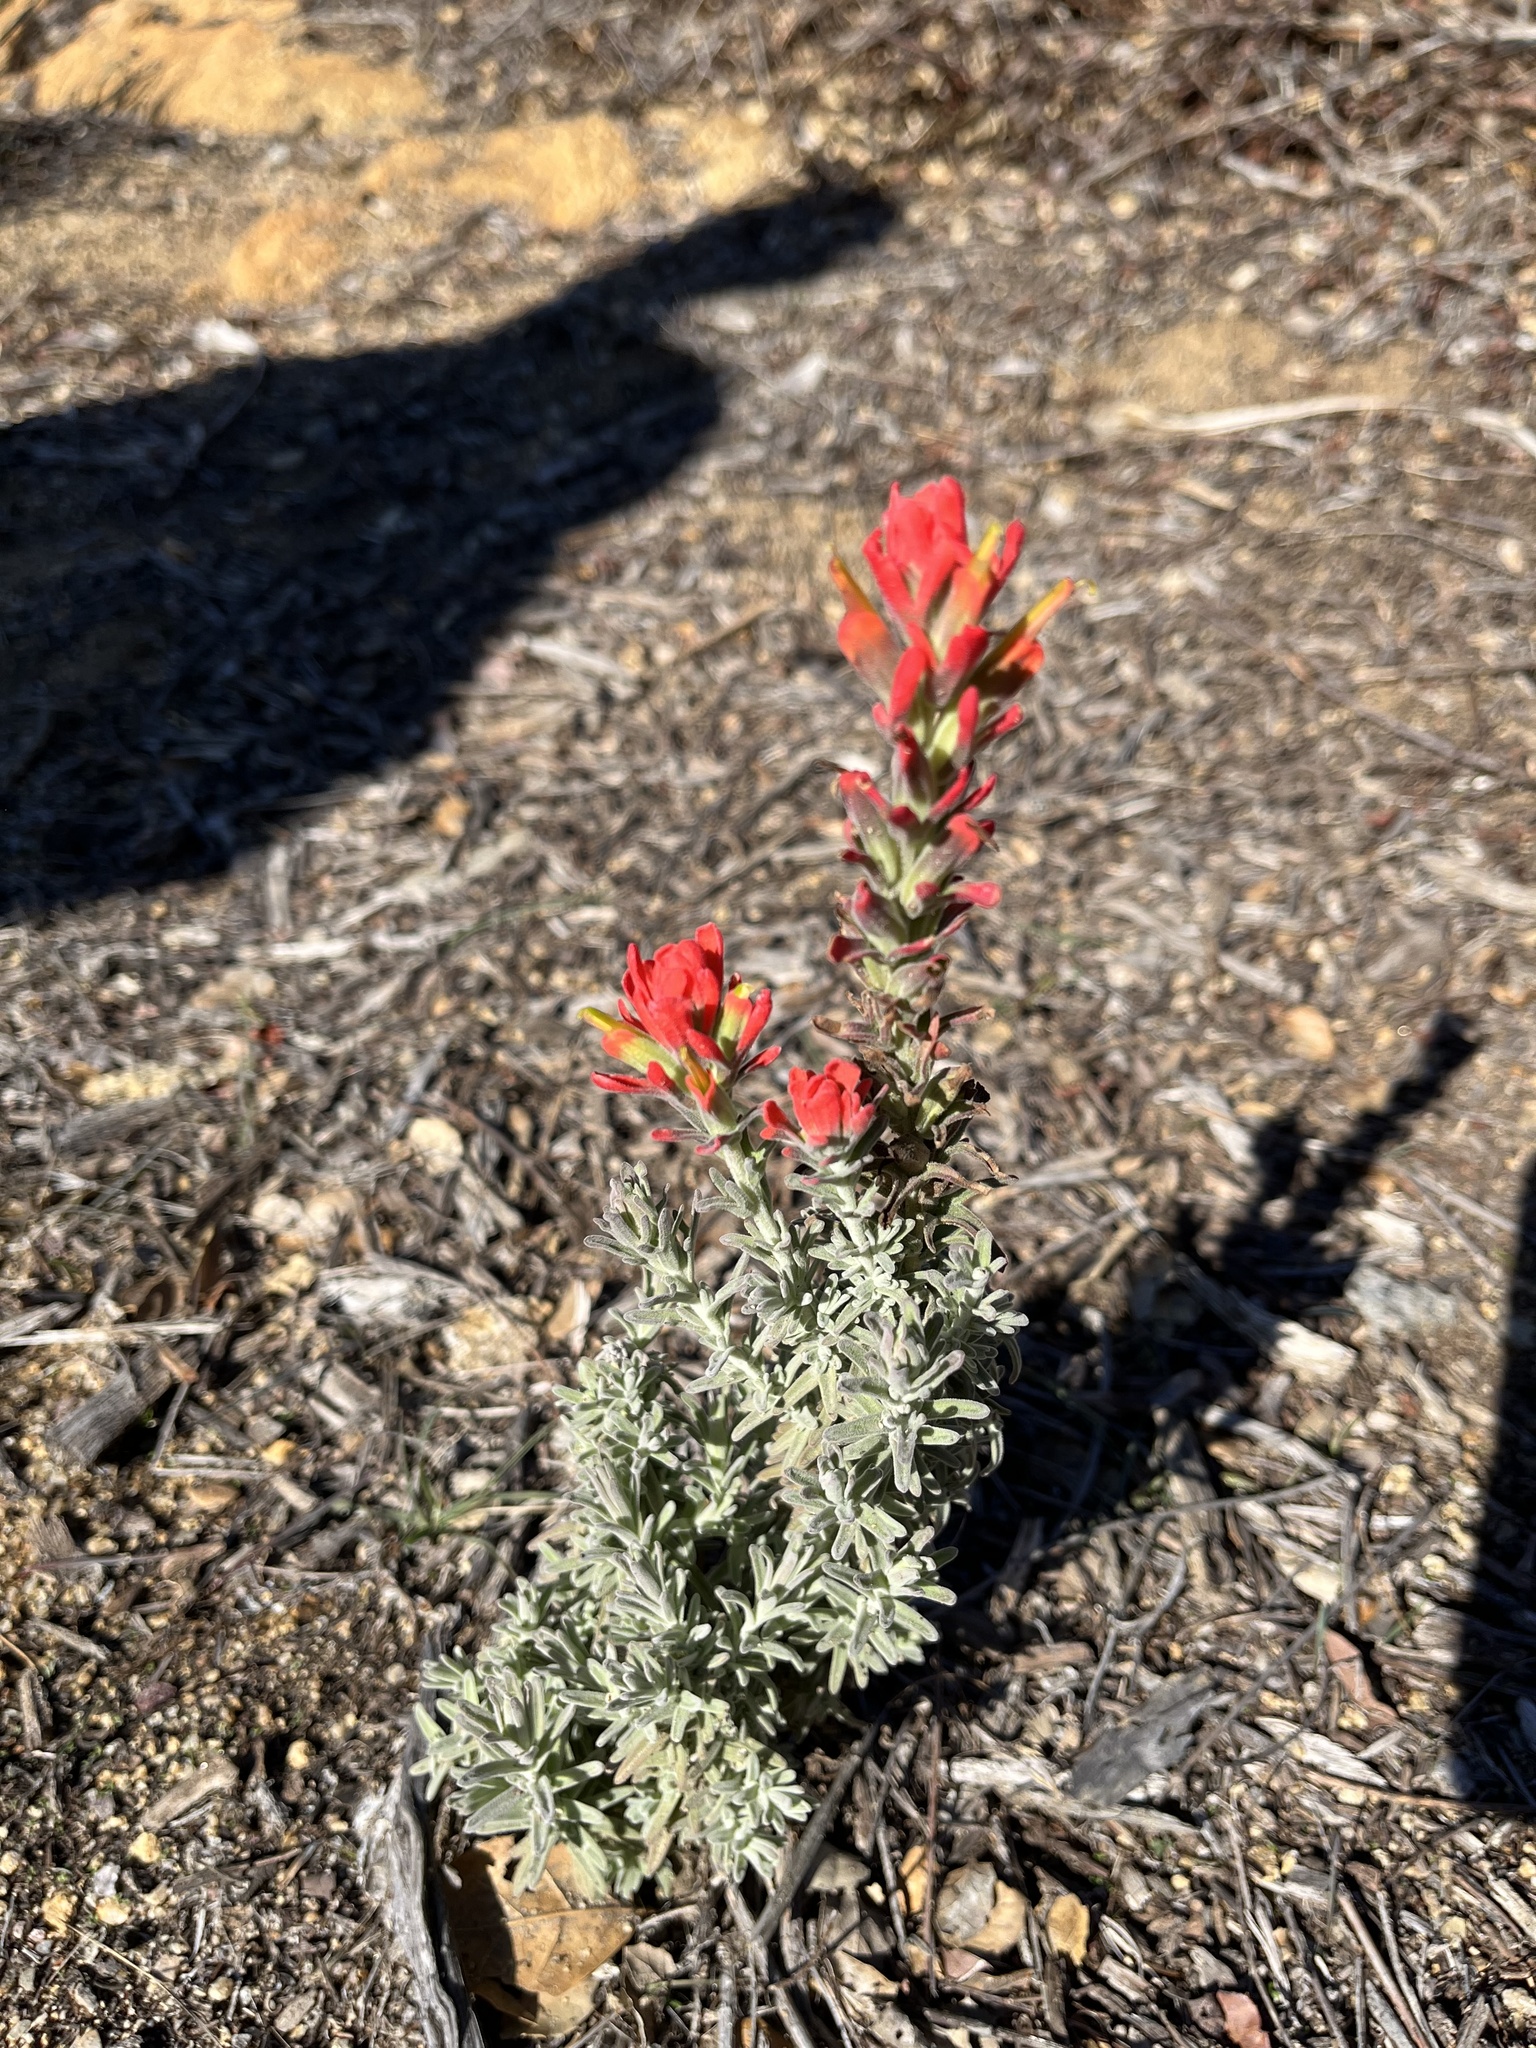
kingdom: Plantae
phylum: Tracheophyta
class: Magnoliopsida
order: Lamiales
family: Orobanchaceae
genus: Castilleja
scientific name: Castilleja foliolosa
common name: Woolly indian paintbrush
